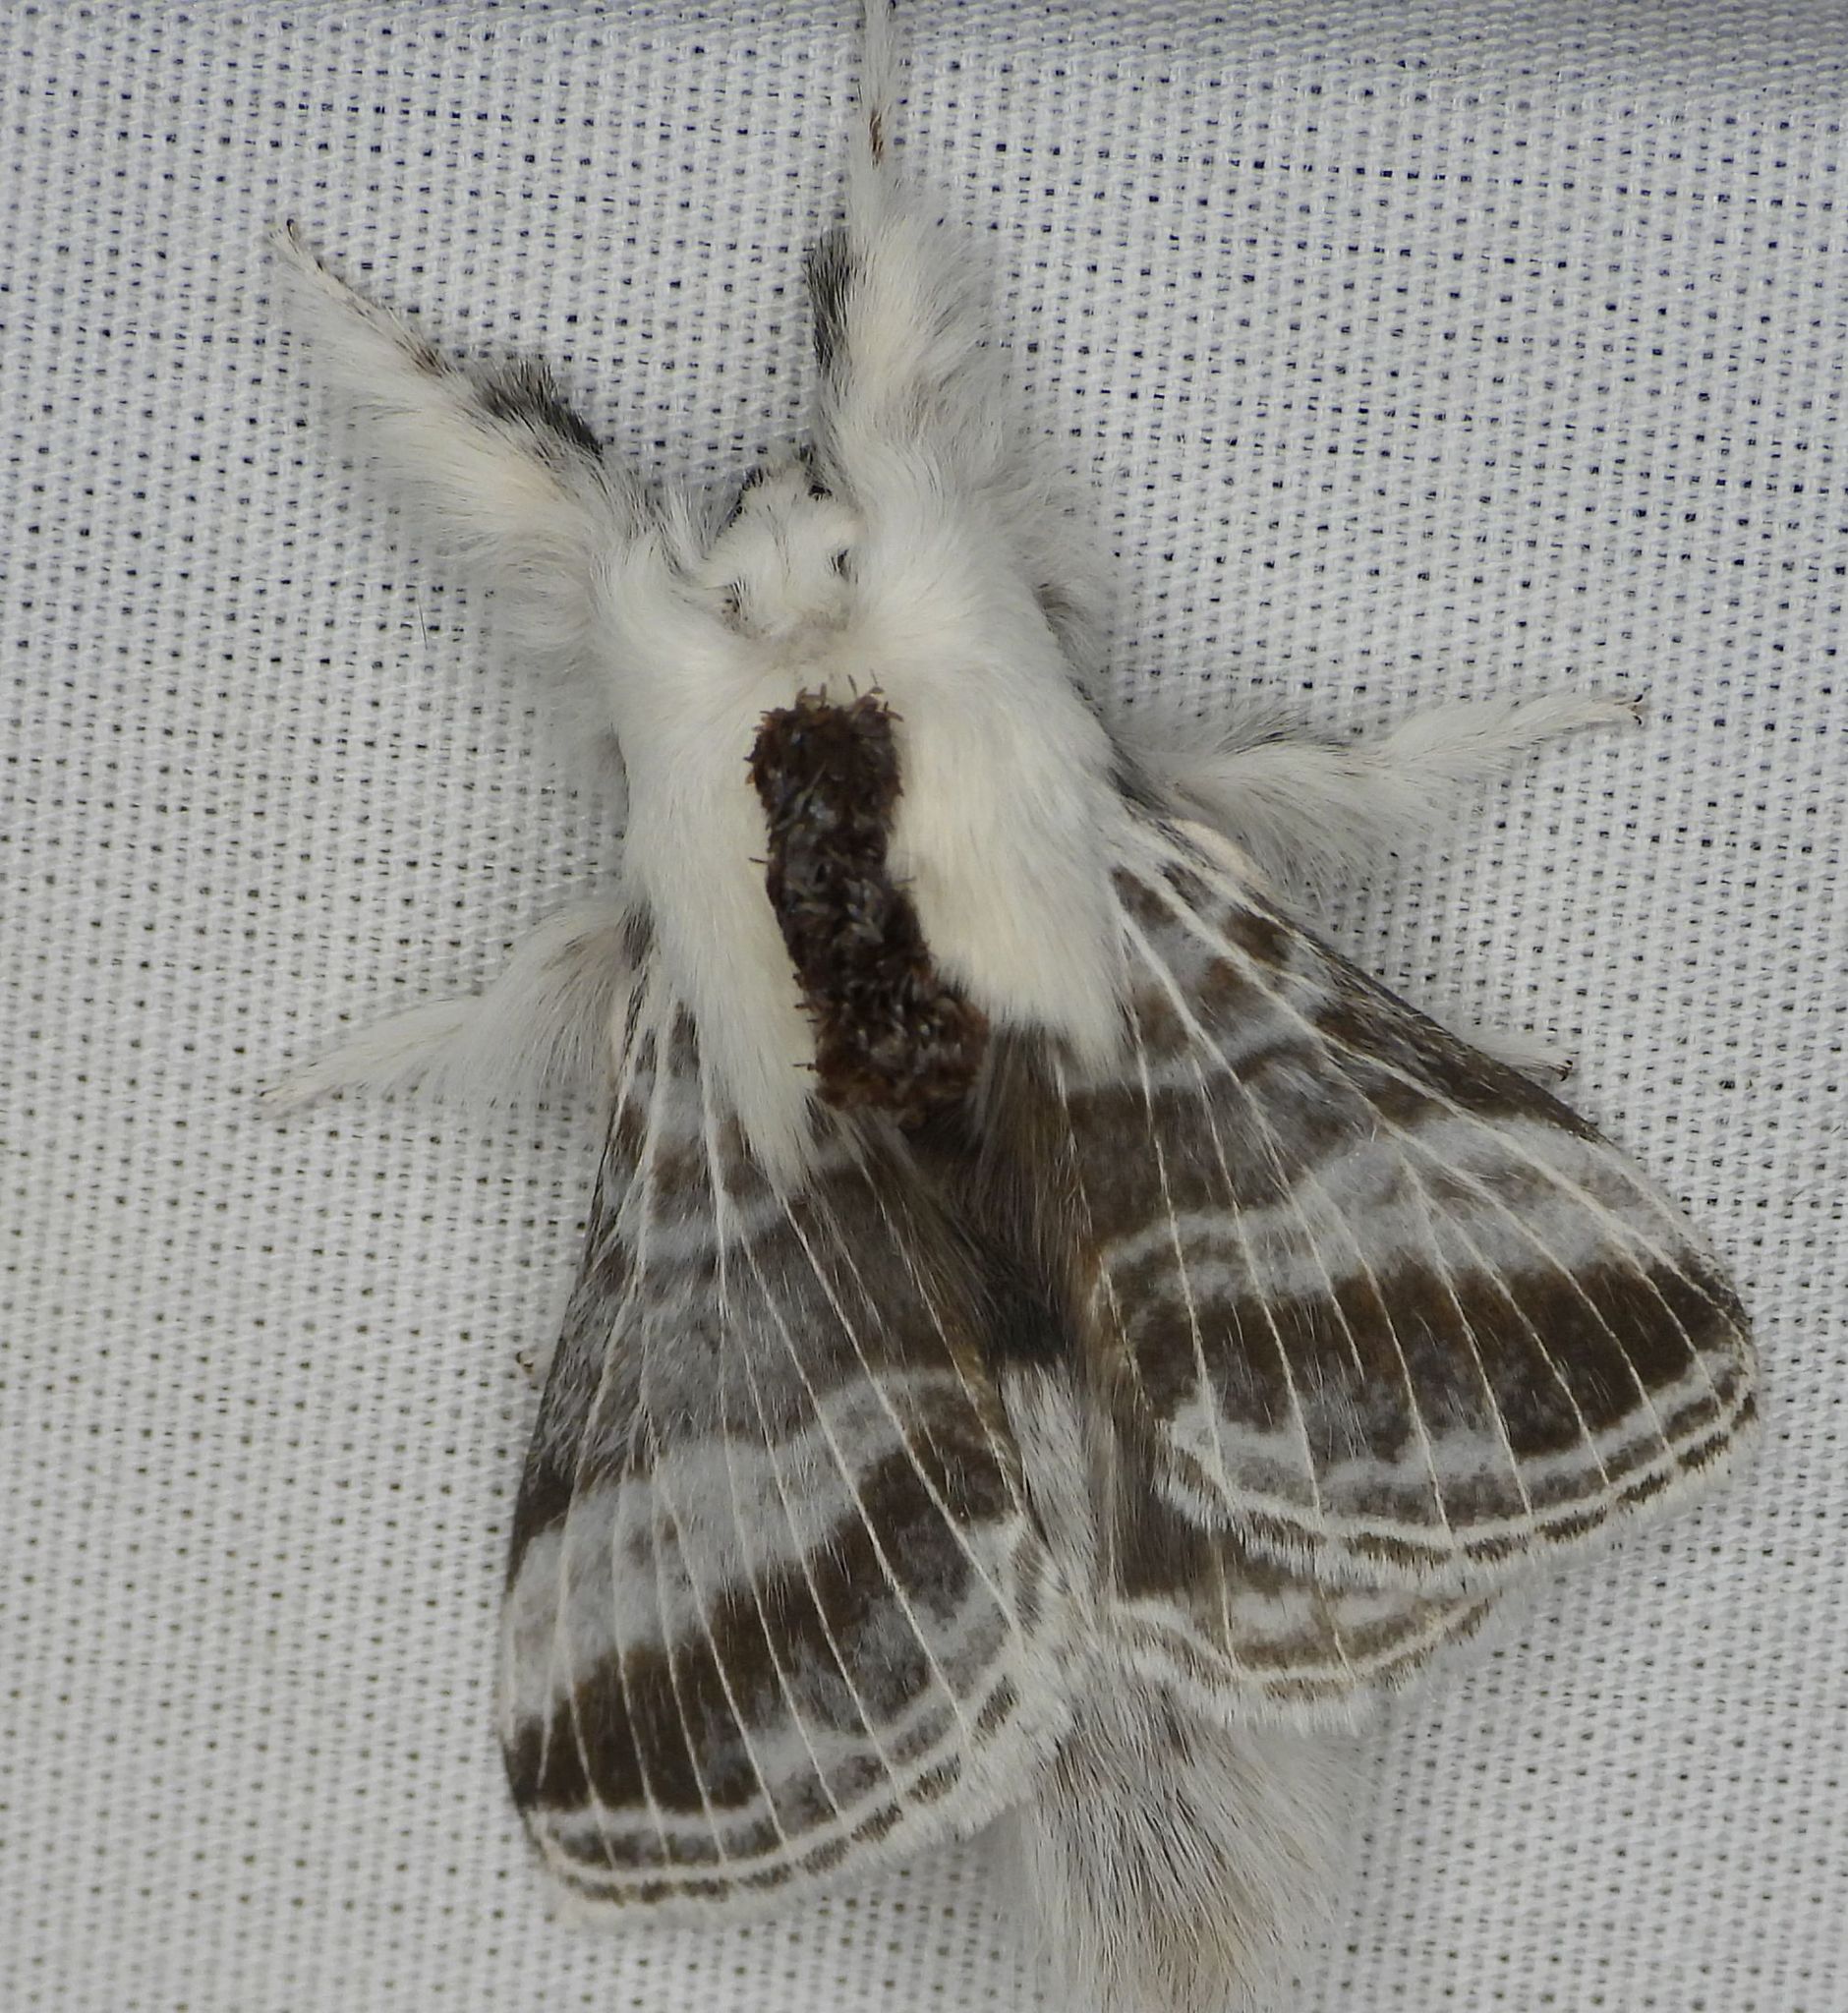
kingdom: Animalia
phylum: Arthropoda
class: Insecta
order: Lepidoptera
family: Lasiocampidae
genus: Tolype
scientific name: Tolype velleda
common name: Large tolype moth
